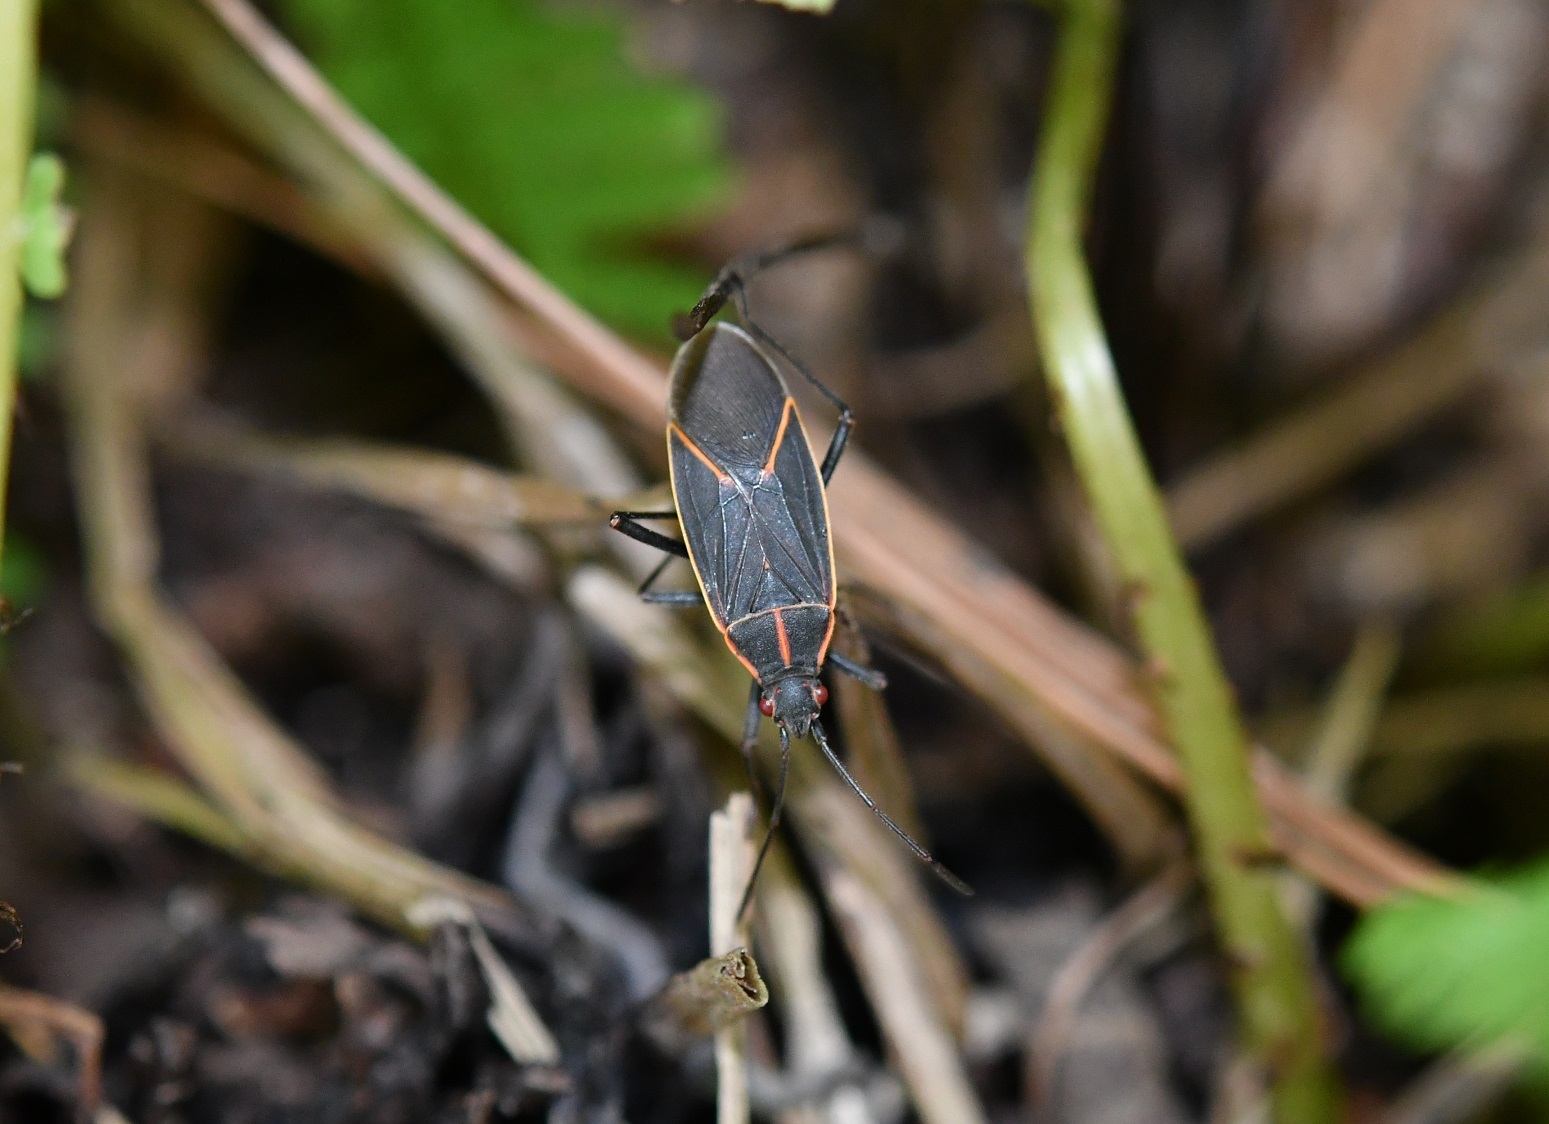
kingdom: Animalia
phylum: Arthropoda
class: Insecta
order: Hemiptera
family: Rhopalidae
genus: Boisea
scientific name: Boisea trivittata
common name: Boxelder bug
